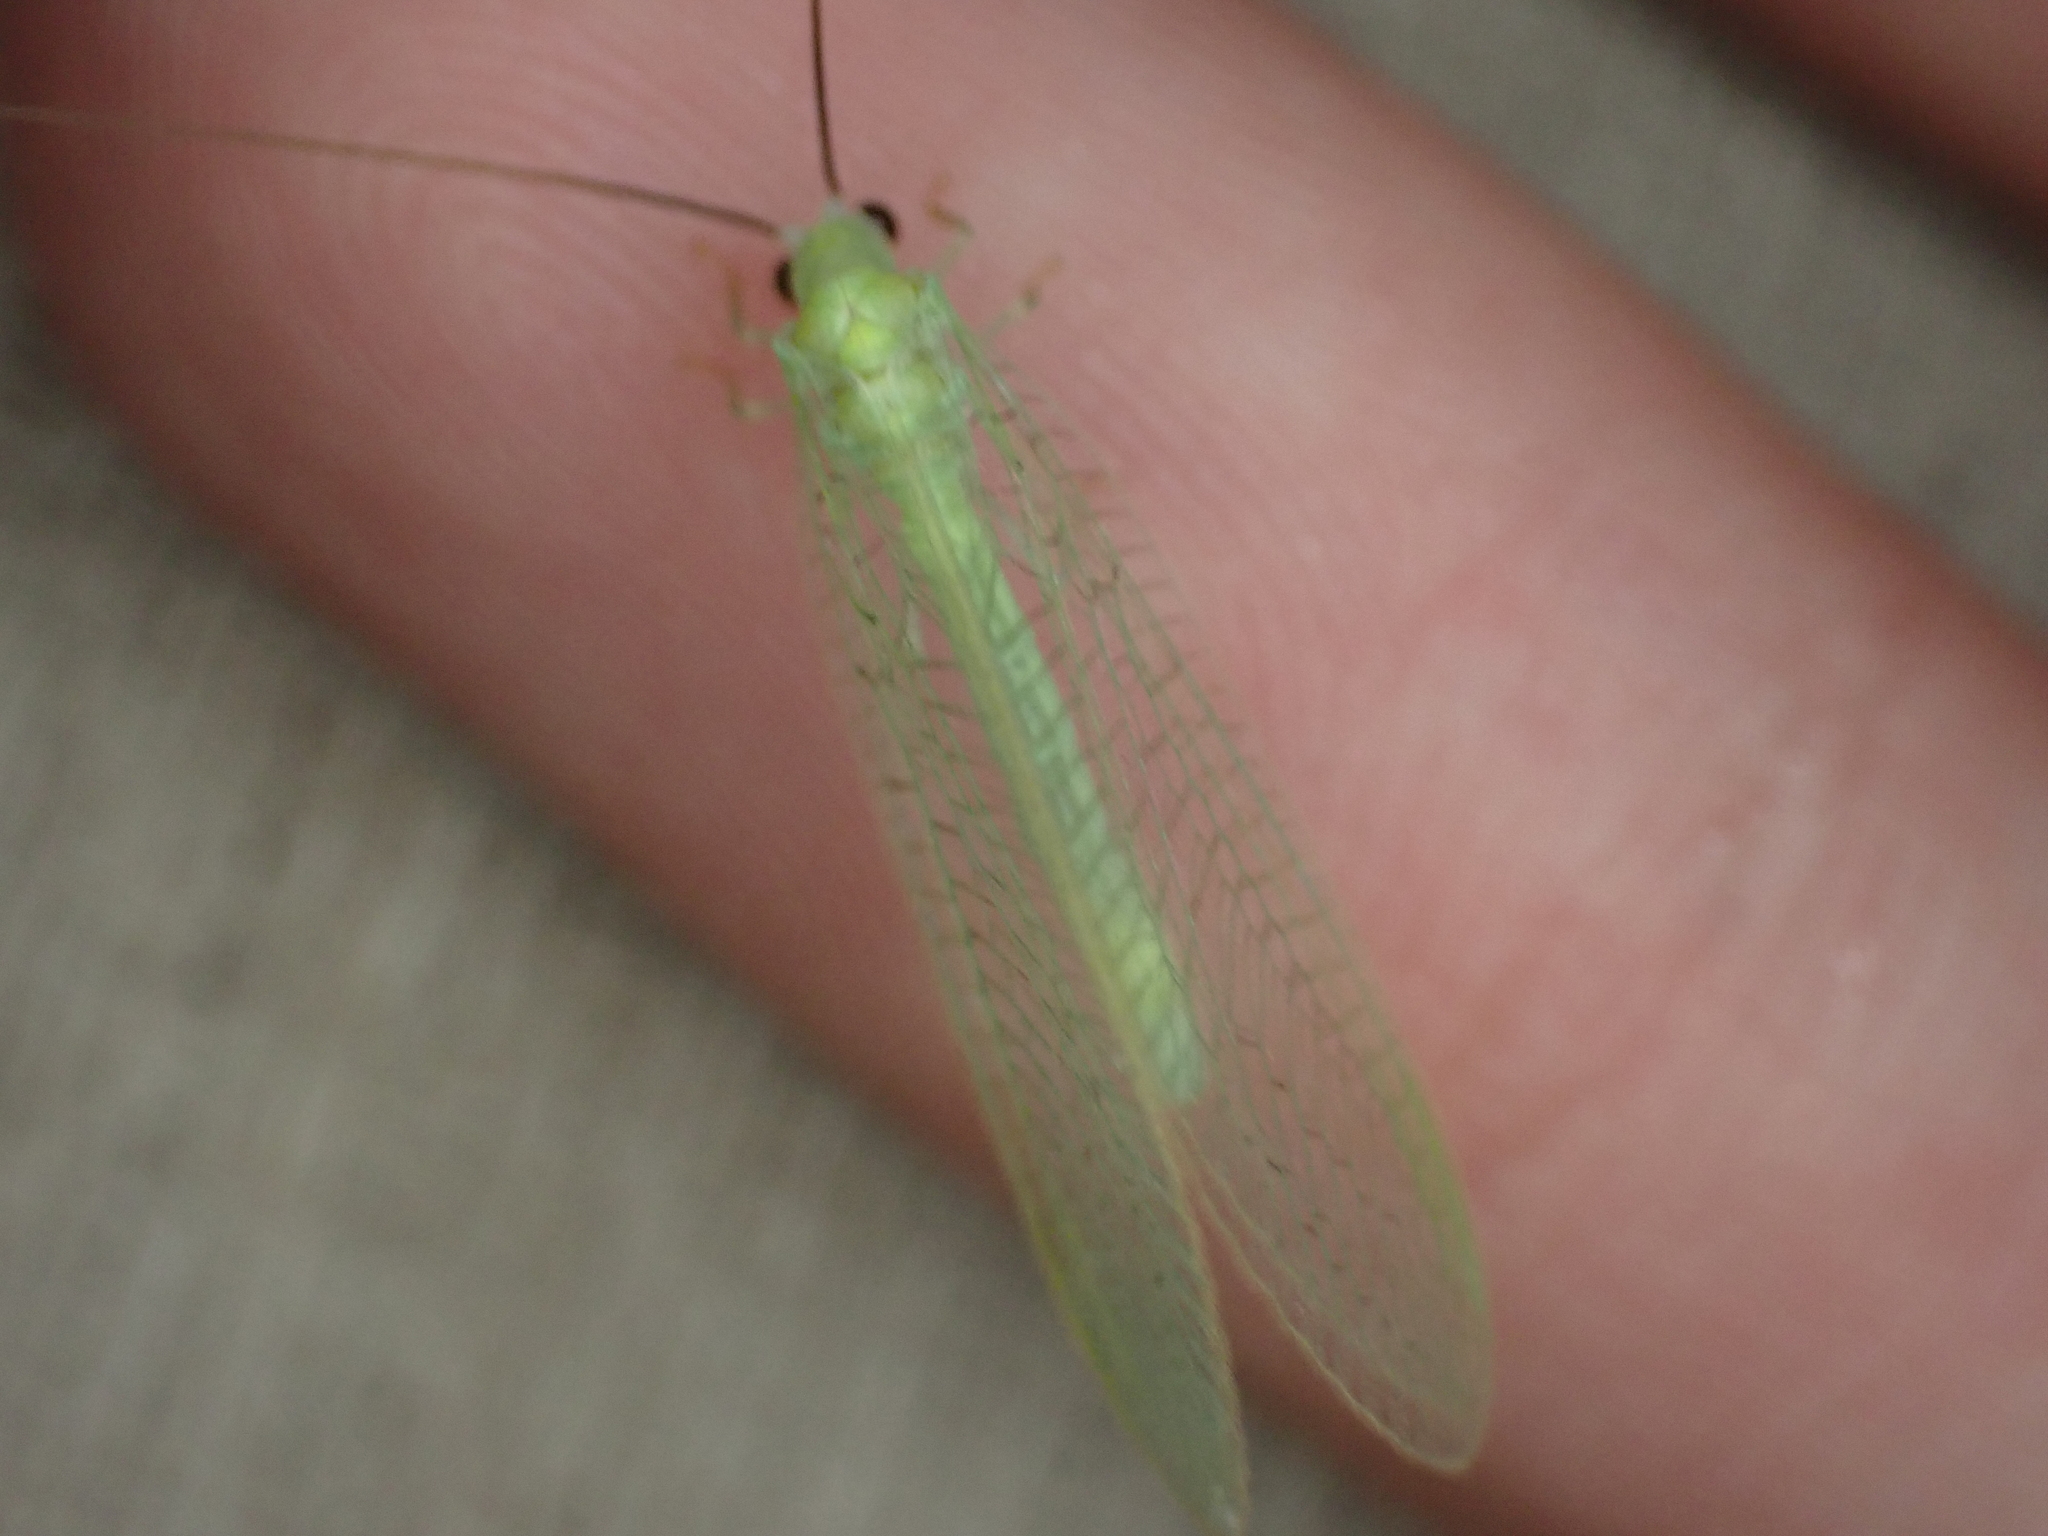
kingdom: Animalia
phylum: Arthropoda
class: Insecta
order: Neuroptera
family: Chrysopidae
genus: Chrysopa
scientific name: Chrysopa nigricornis
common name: Black-horned green lacewing
